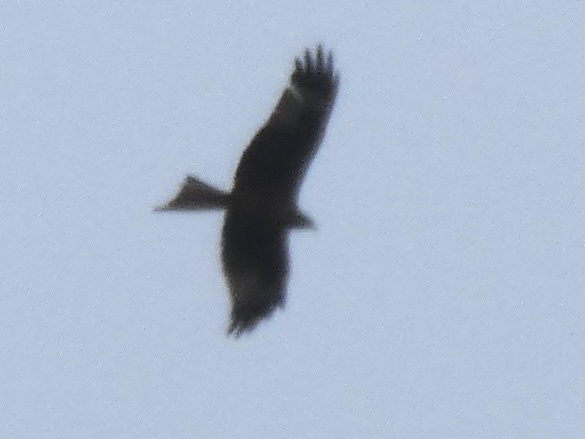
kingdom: Animalia
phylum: Chordata
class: Aves
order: Accipitriformes
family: Accipitridae
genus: Milvus
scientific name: Milvus milvus
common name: Red kite
